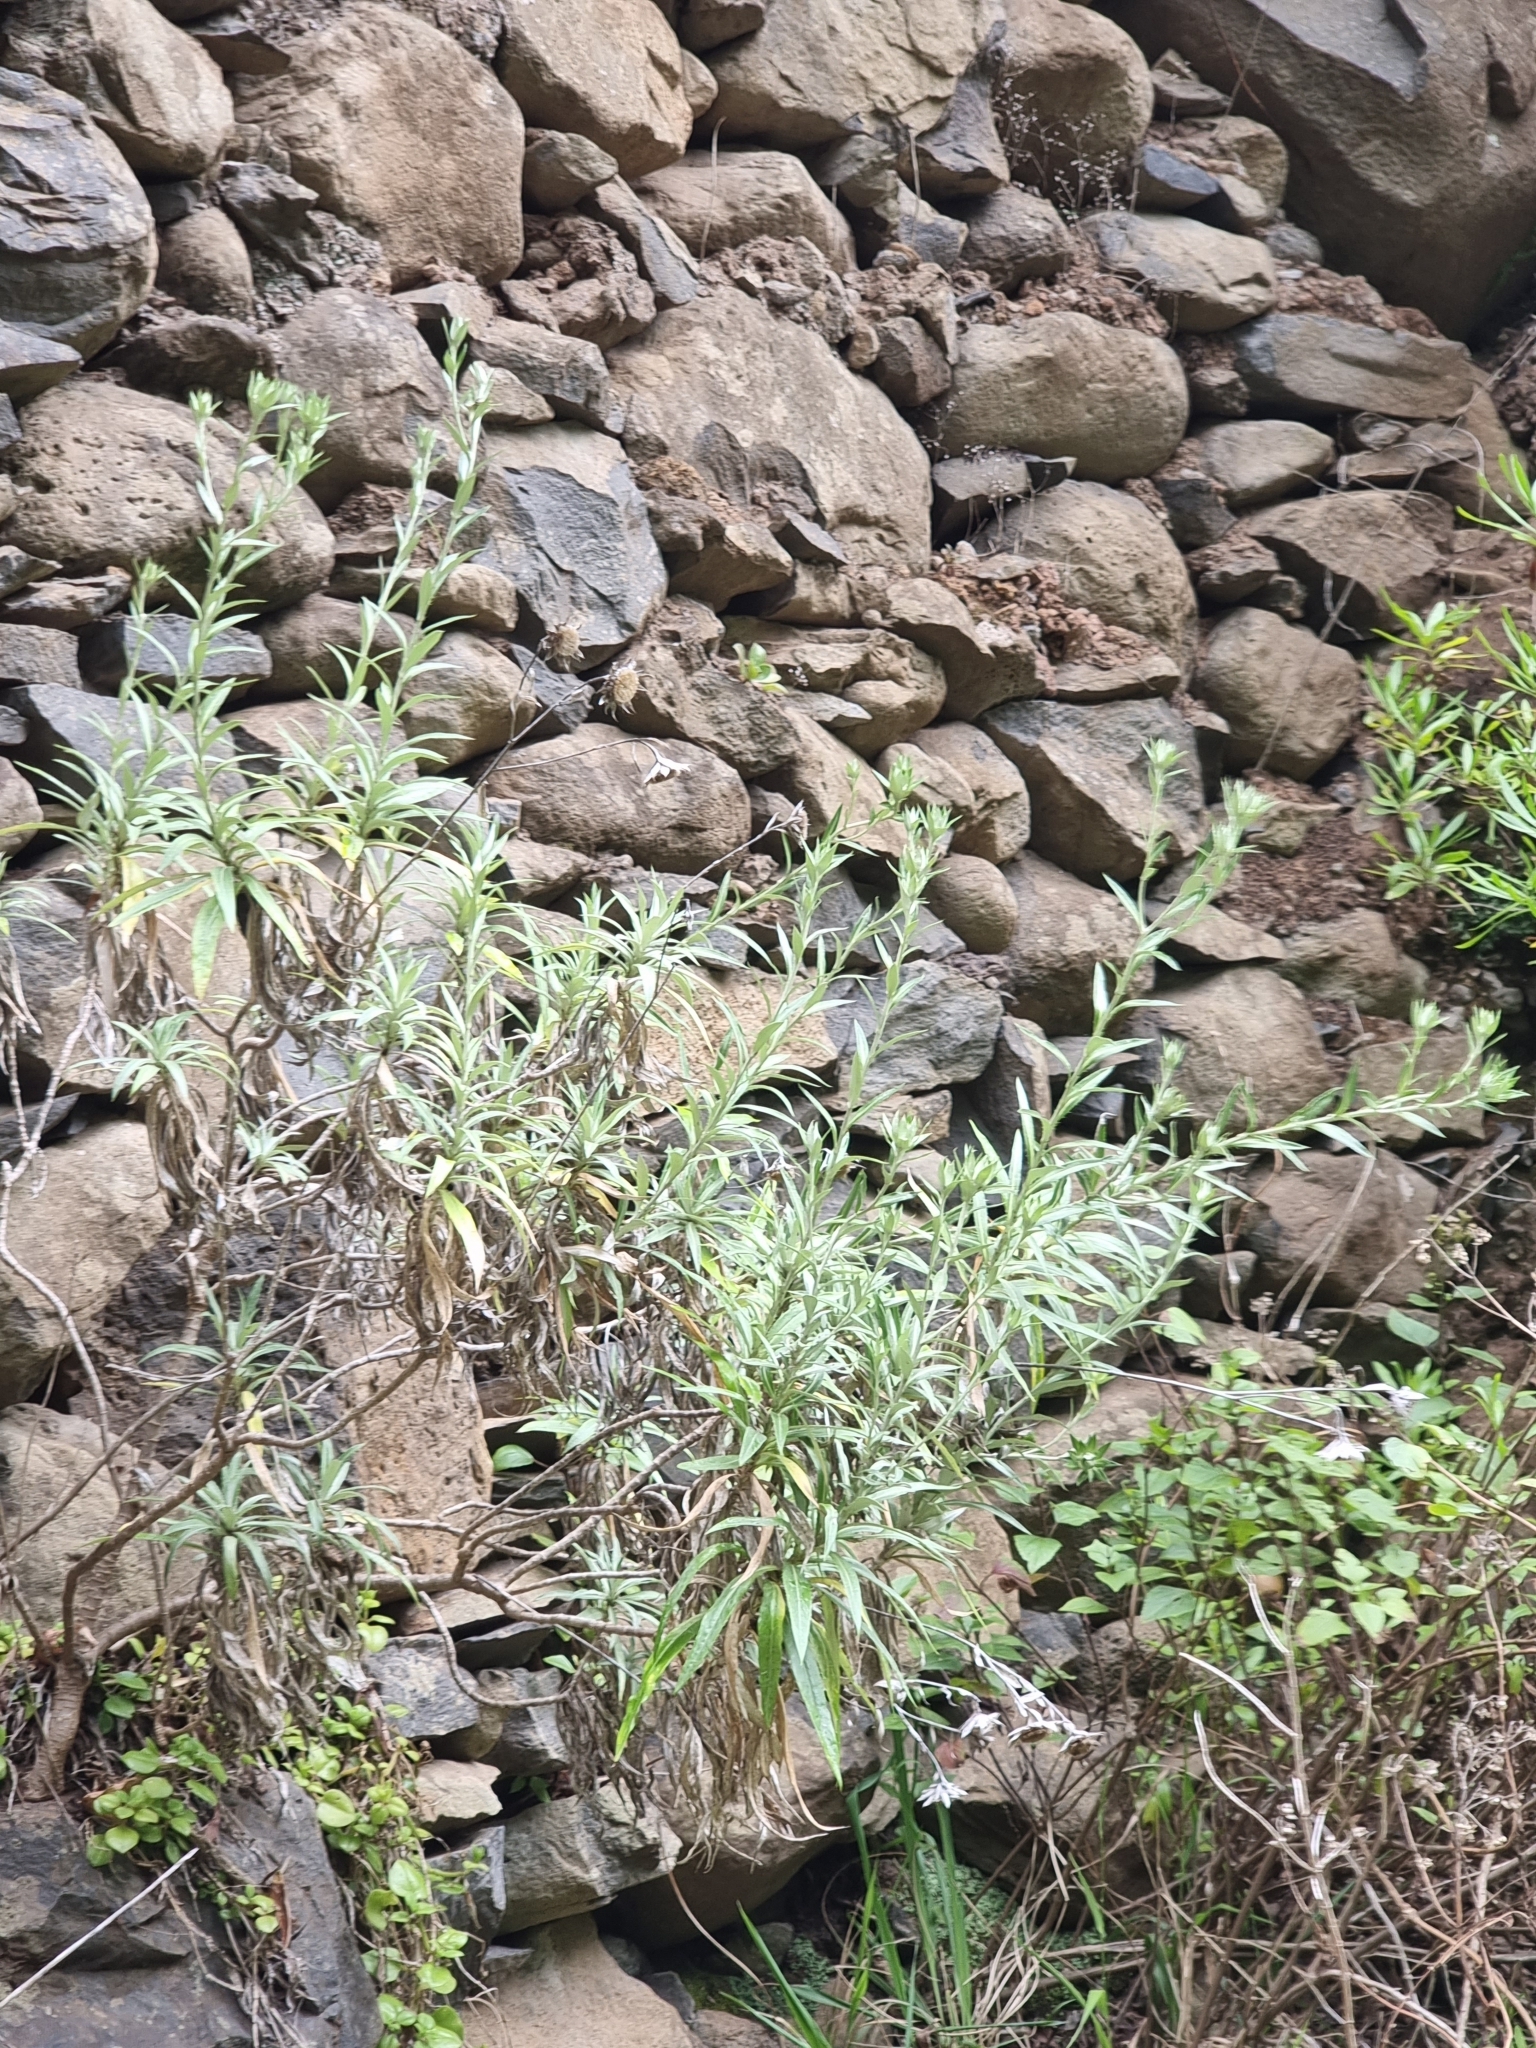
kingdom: Plantae
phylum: Tracheophyta
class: Magnoliopsida
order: Asterales
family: Asteraceae
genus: Carlina
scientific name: Carlina salicifolia
